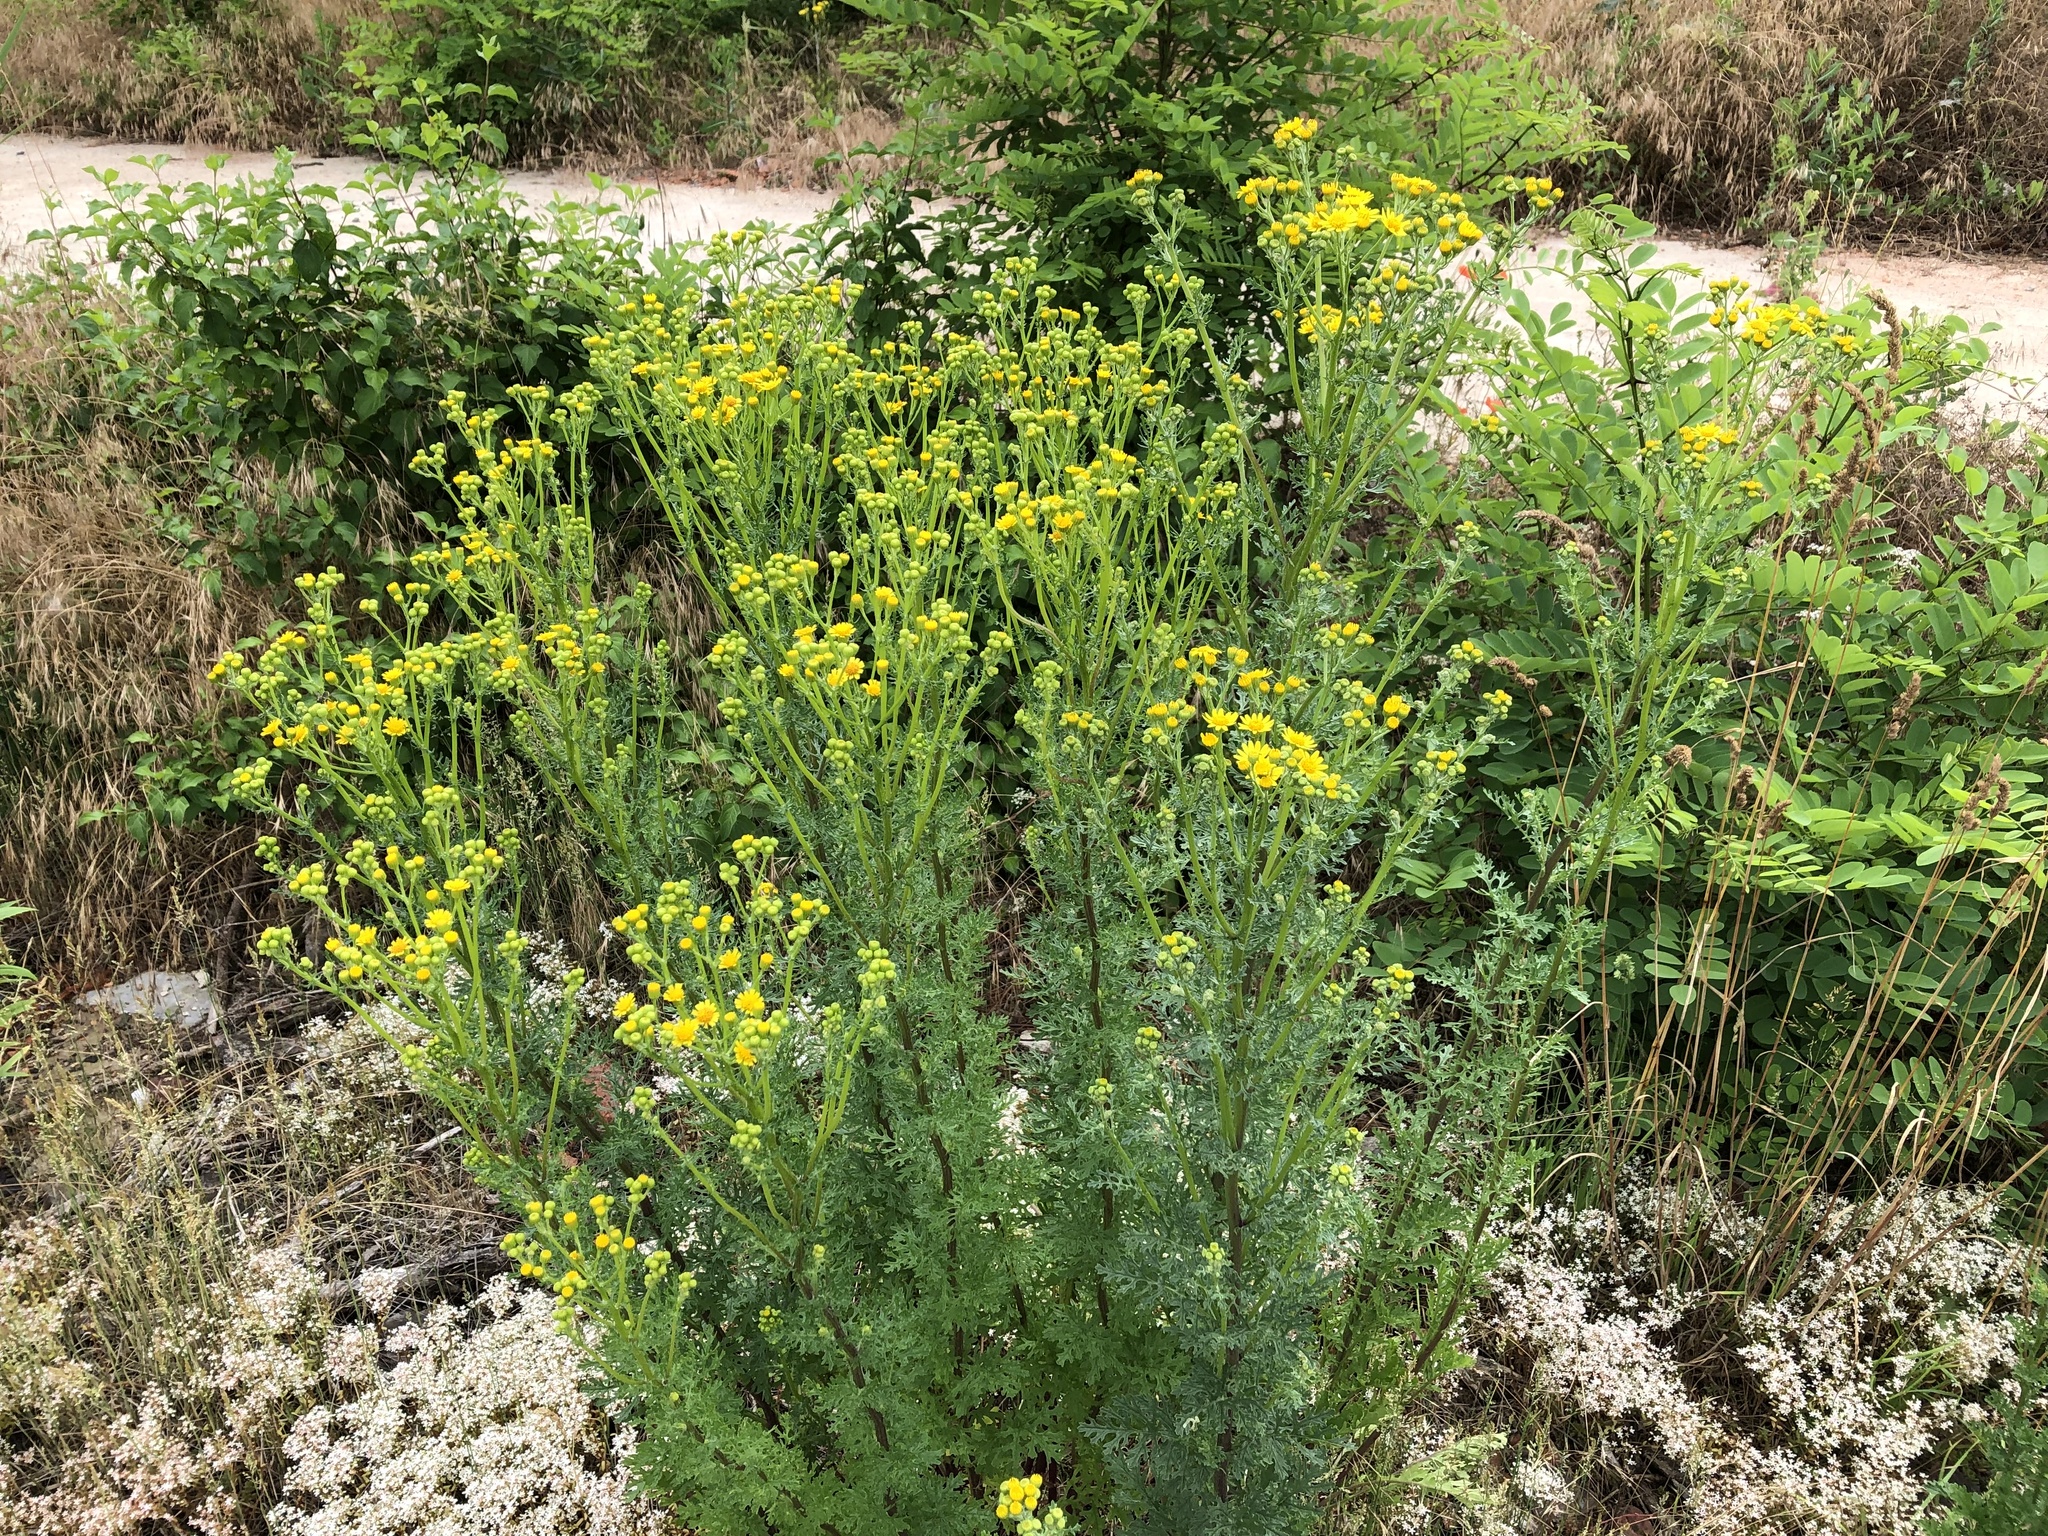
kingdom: Plantae
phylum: Tracheophyta
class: Magnoliopsida
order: Asterales
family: Asteraceae
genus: Jacobaea
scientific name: Jacobaea vulgaris
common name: Stinking willie
